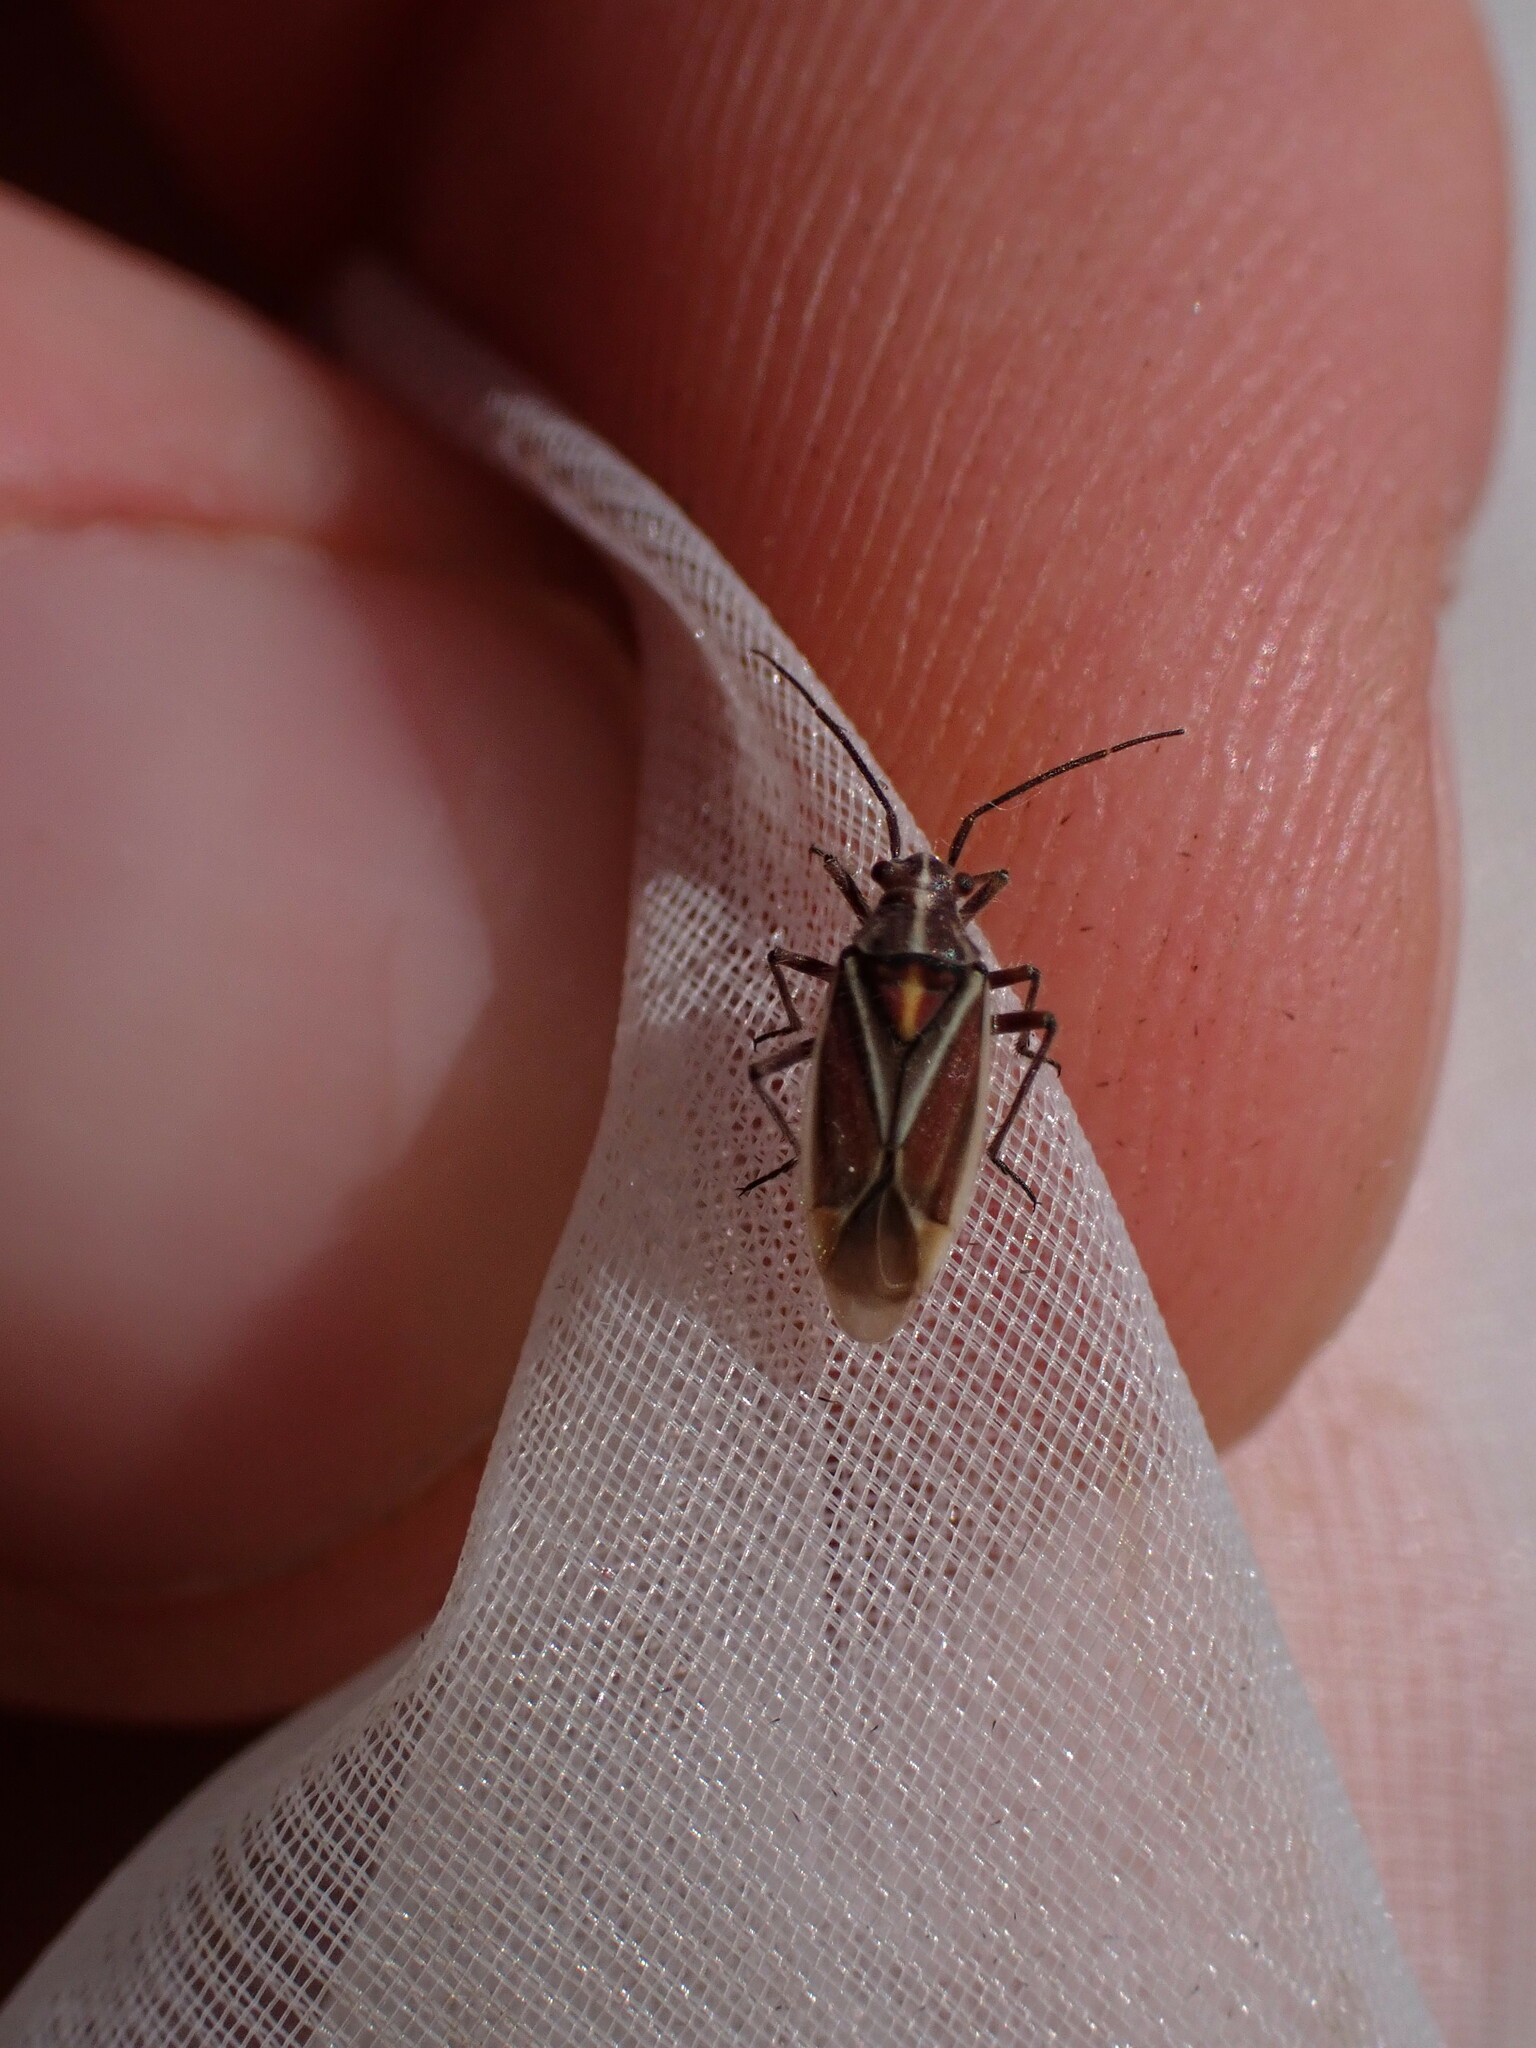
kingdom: Animalia
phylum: Arthropoda
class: Insecta
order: Hemiptera
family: Miridae
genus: Horistus
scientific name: Horistus orientalis
